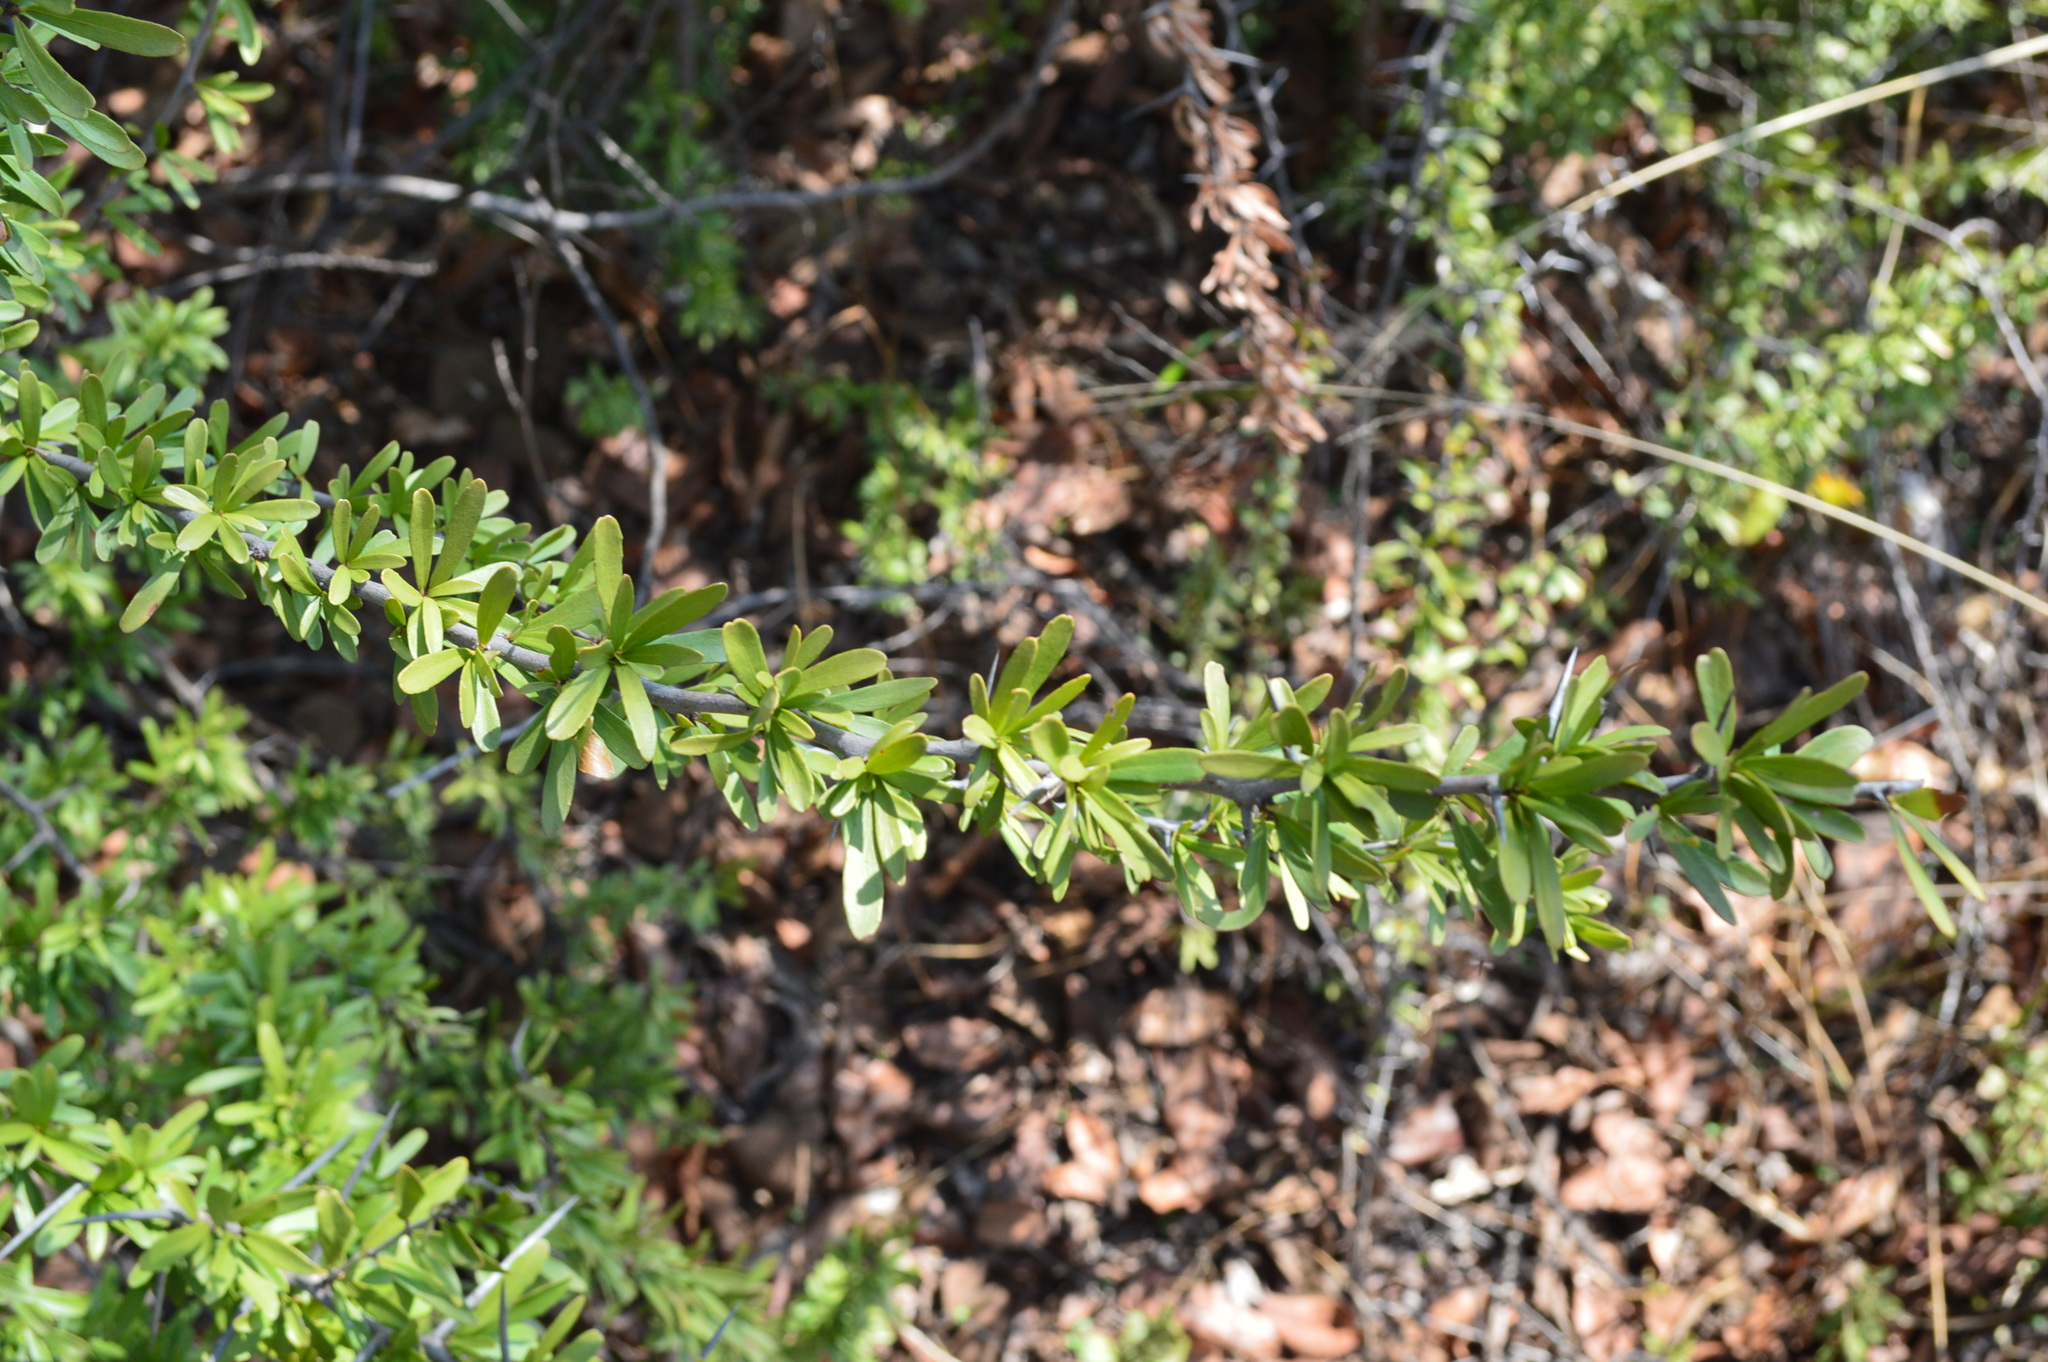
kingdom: Plantae
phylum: Tracheophyta
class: Magnoliopsida
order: Celastrales
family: Celastraceae
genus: Gymnosporia
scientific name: Gymnosporia polyacantha
